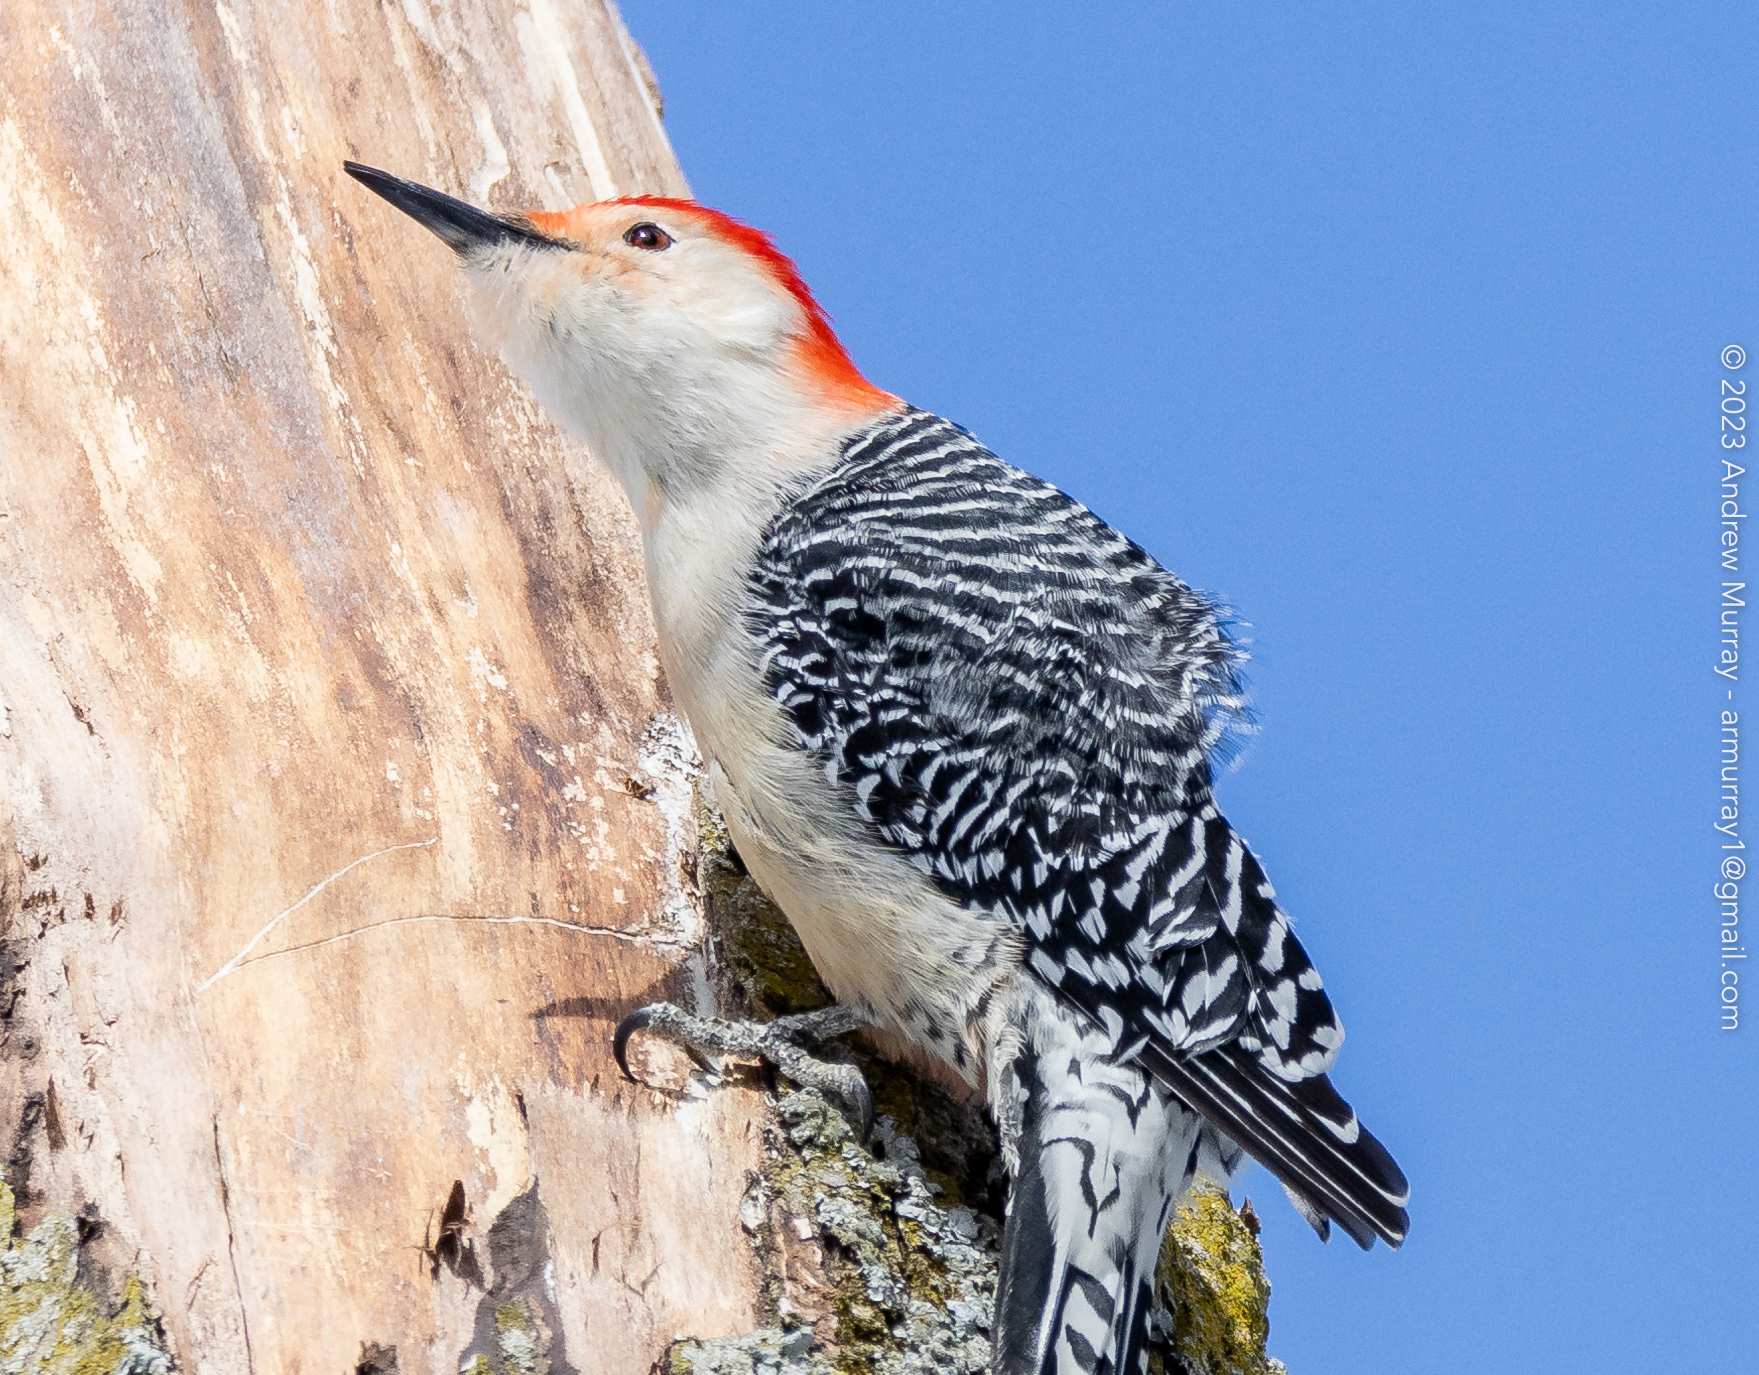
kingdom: Animalia
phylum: Chordata
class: Aves
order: Piciformes
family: Picidae
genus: Melanerpes
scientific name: Melanerpes carolinus
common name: Red-bellied woodpecker
